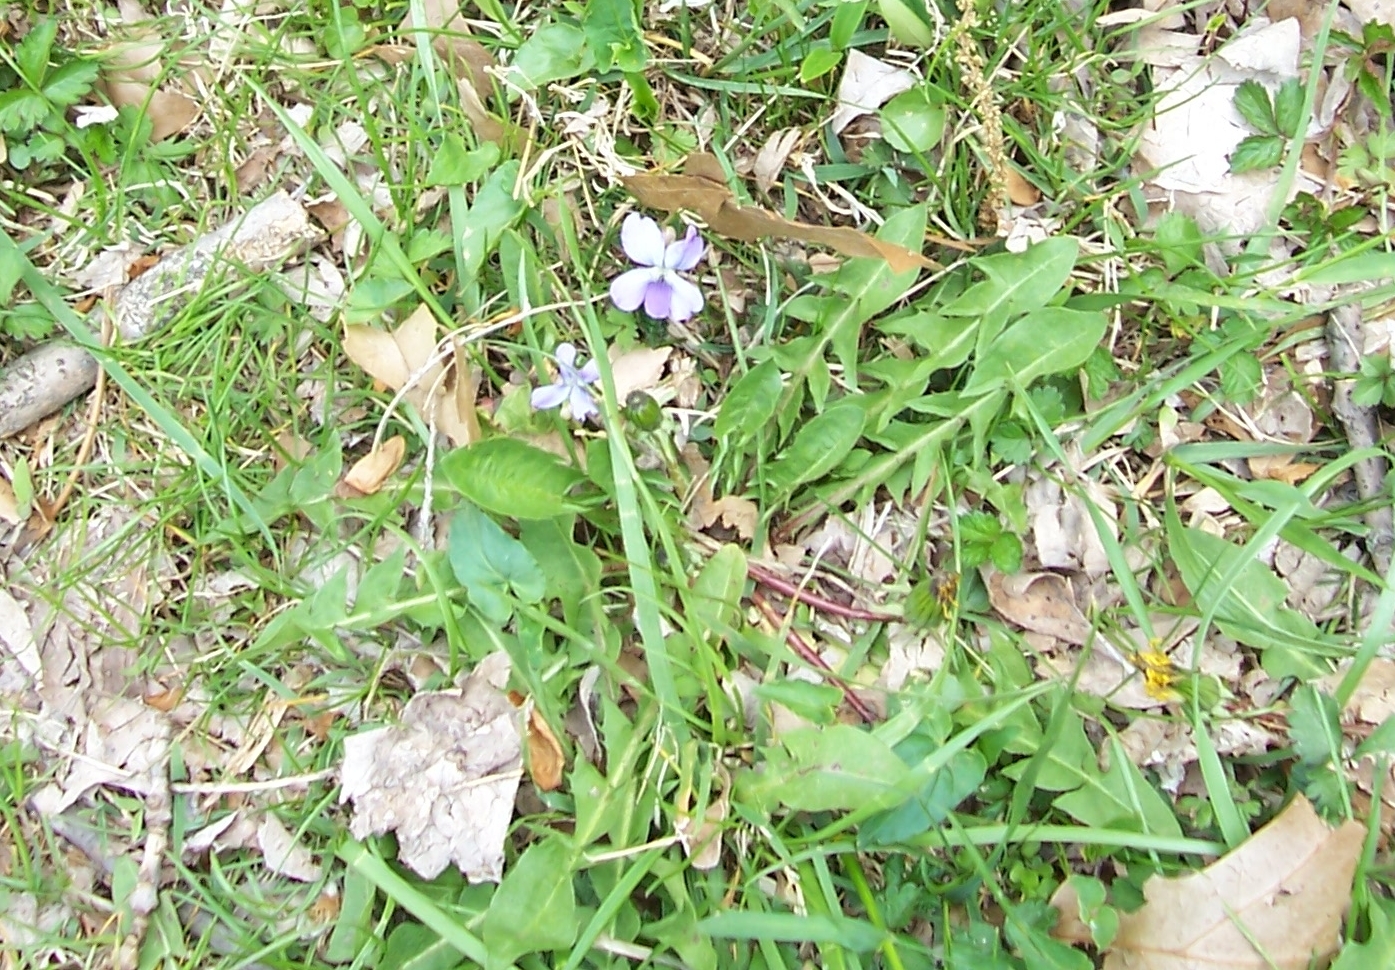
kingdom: Plantae
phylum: Tracheophyta
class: Magnoliopsida
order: Malpighiales
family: Violaceae
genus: Viola
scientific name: Viola sagittata
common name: Arrowhead violet
